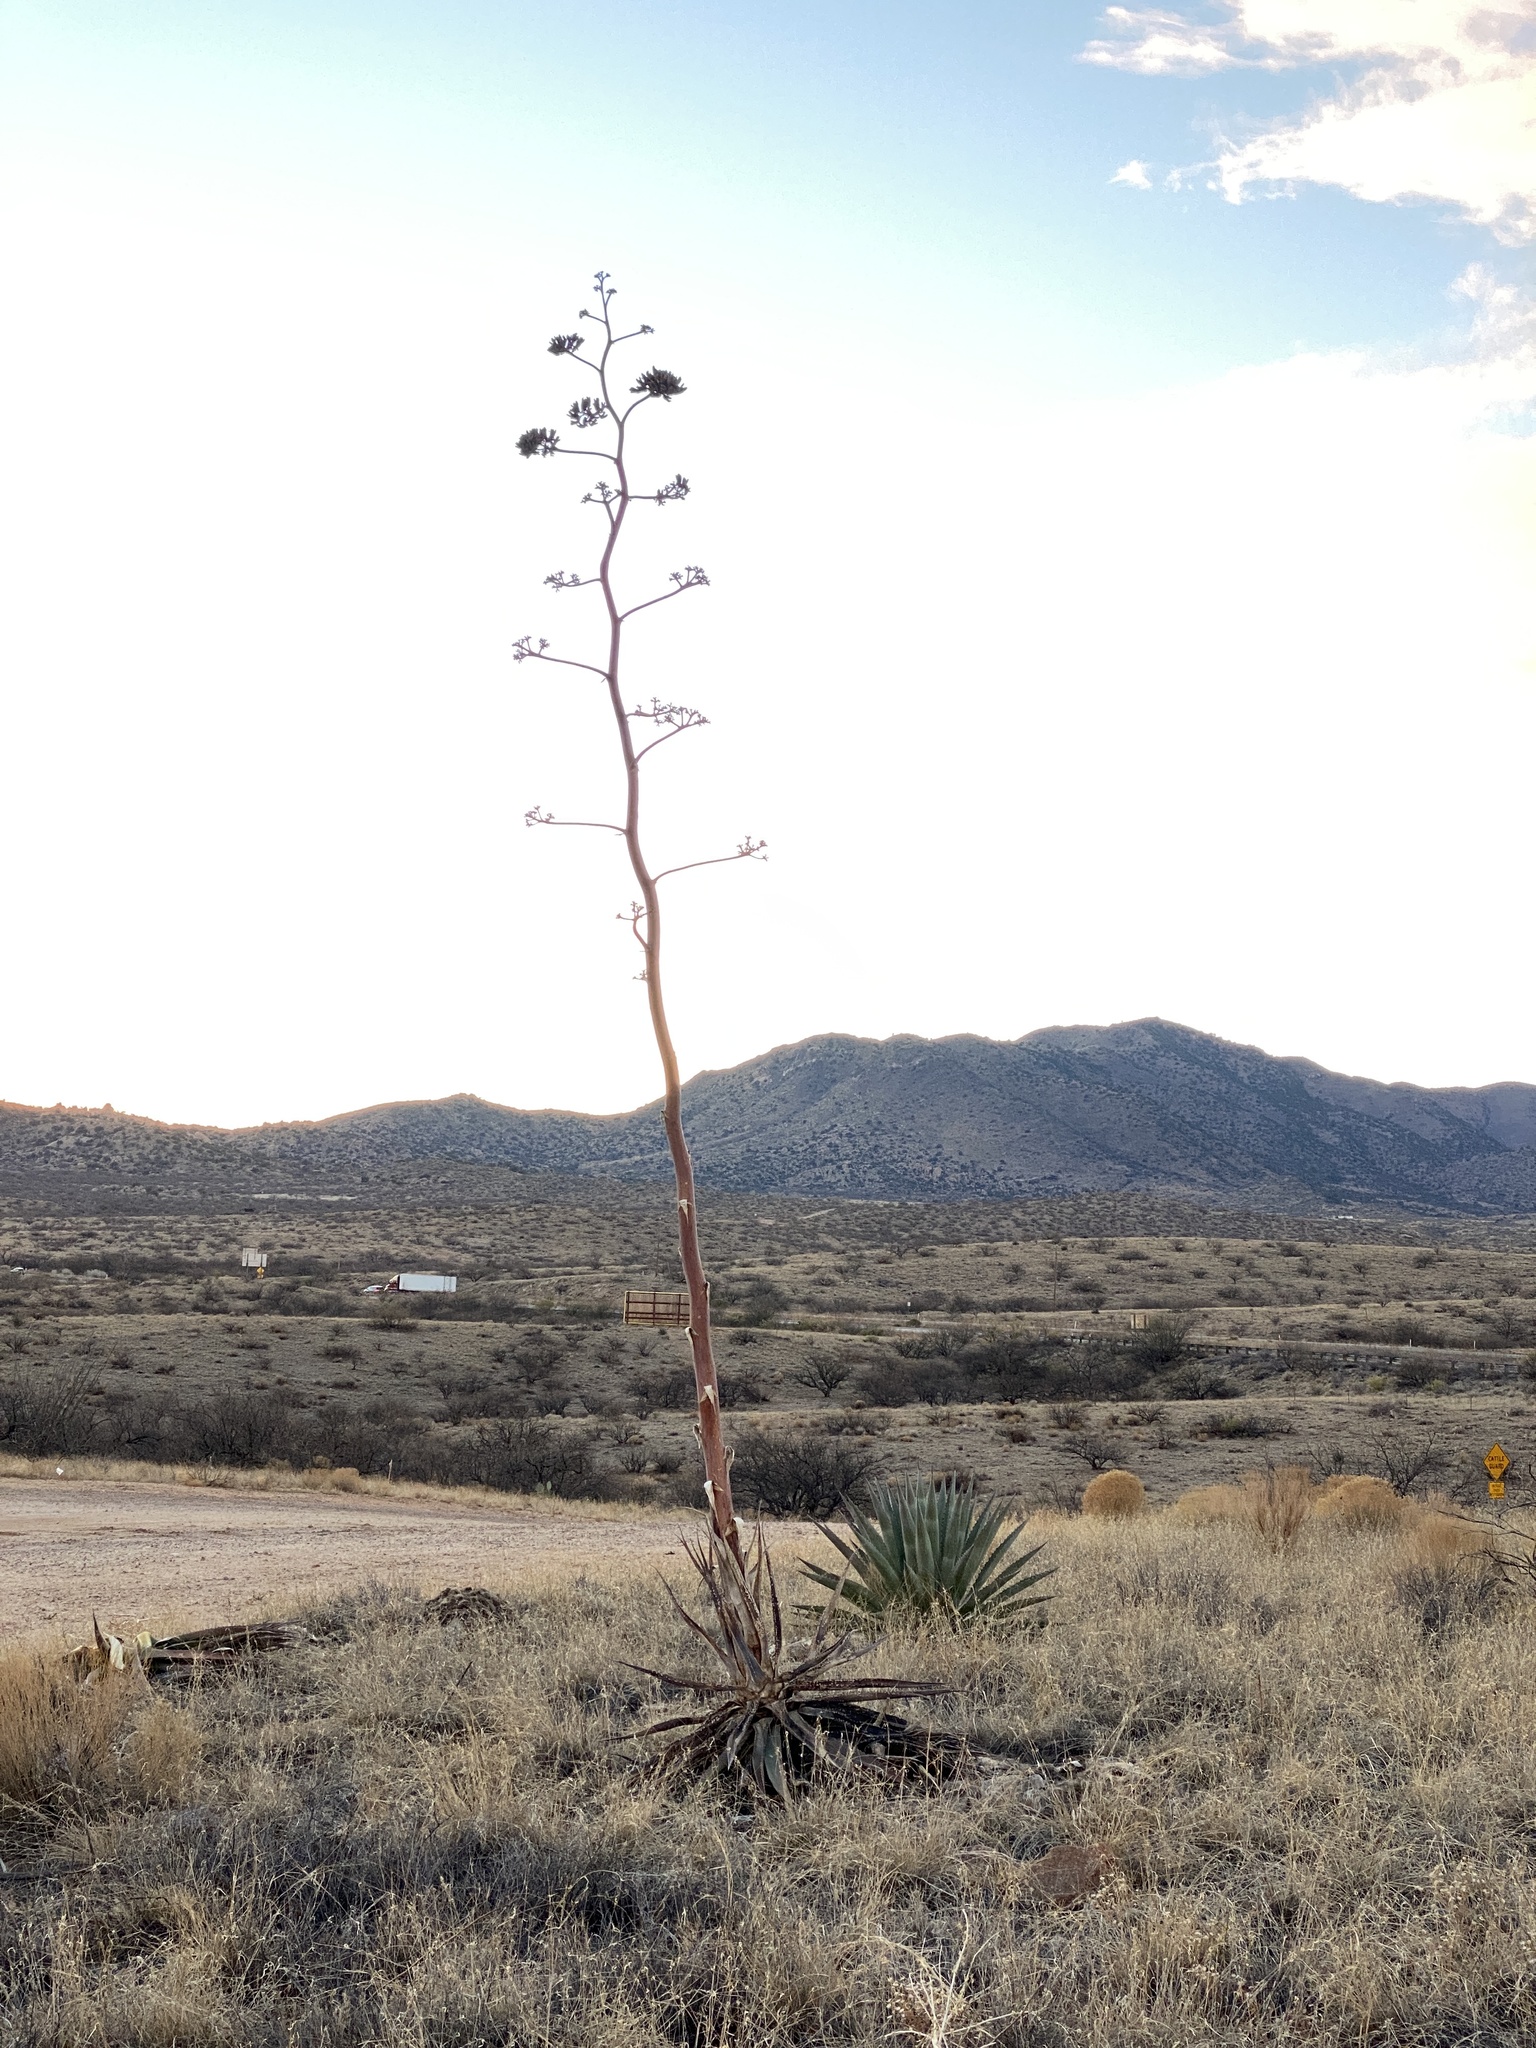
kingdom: Plantae
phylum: Tracheophyta
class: Liliopsida
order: Asparagales
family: Asparagaceae
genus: Agave
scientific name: Agave palmeri
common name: Palmer agave
